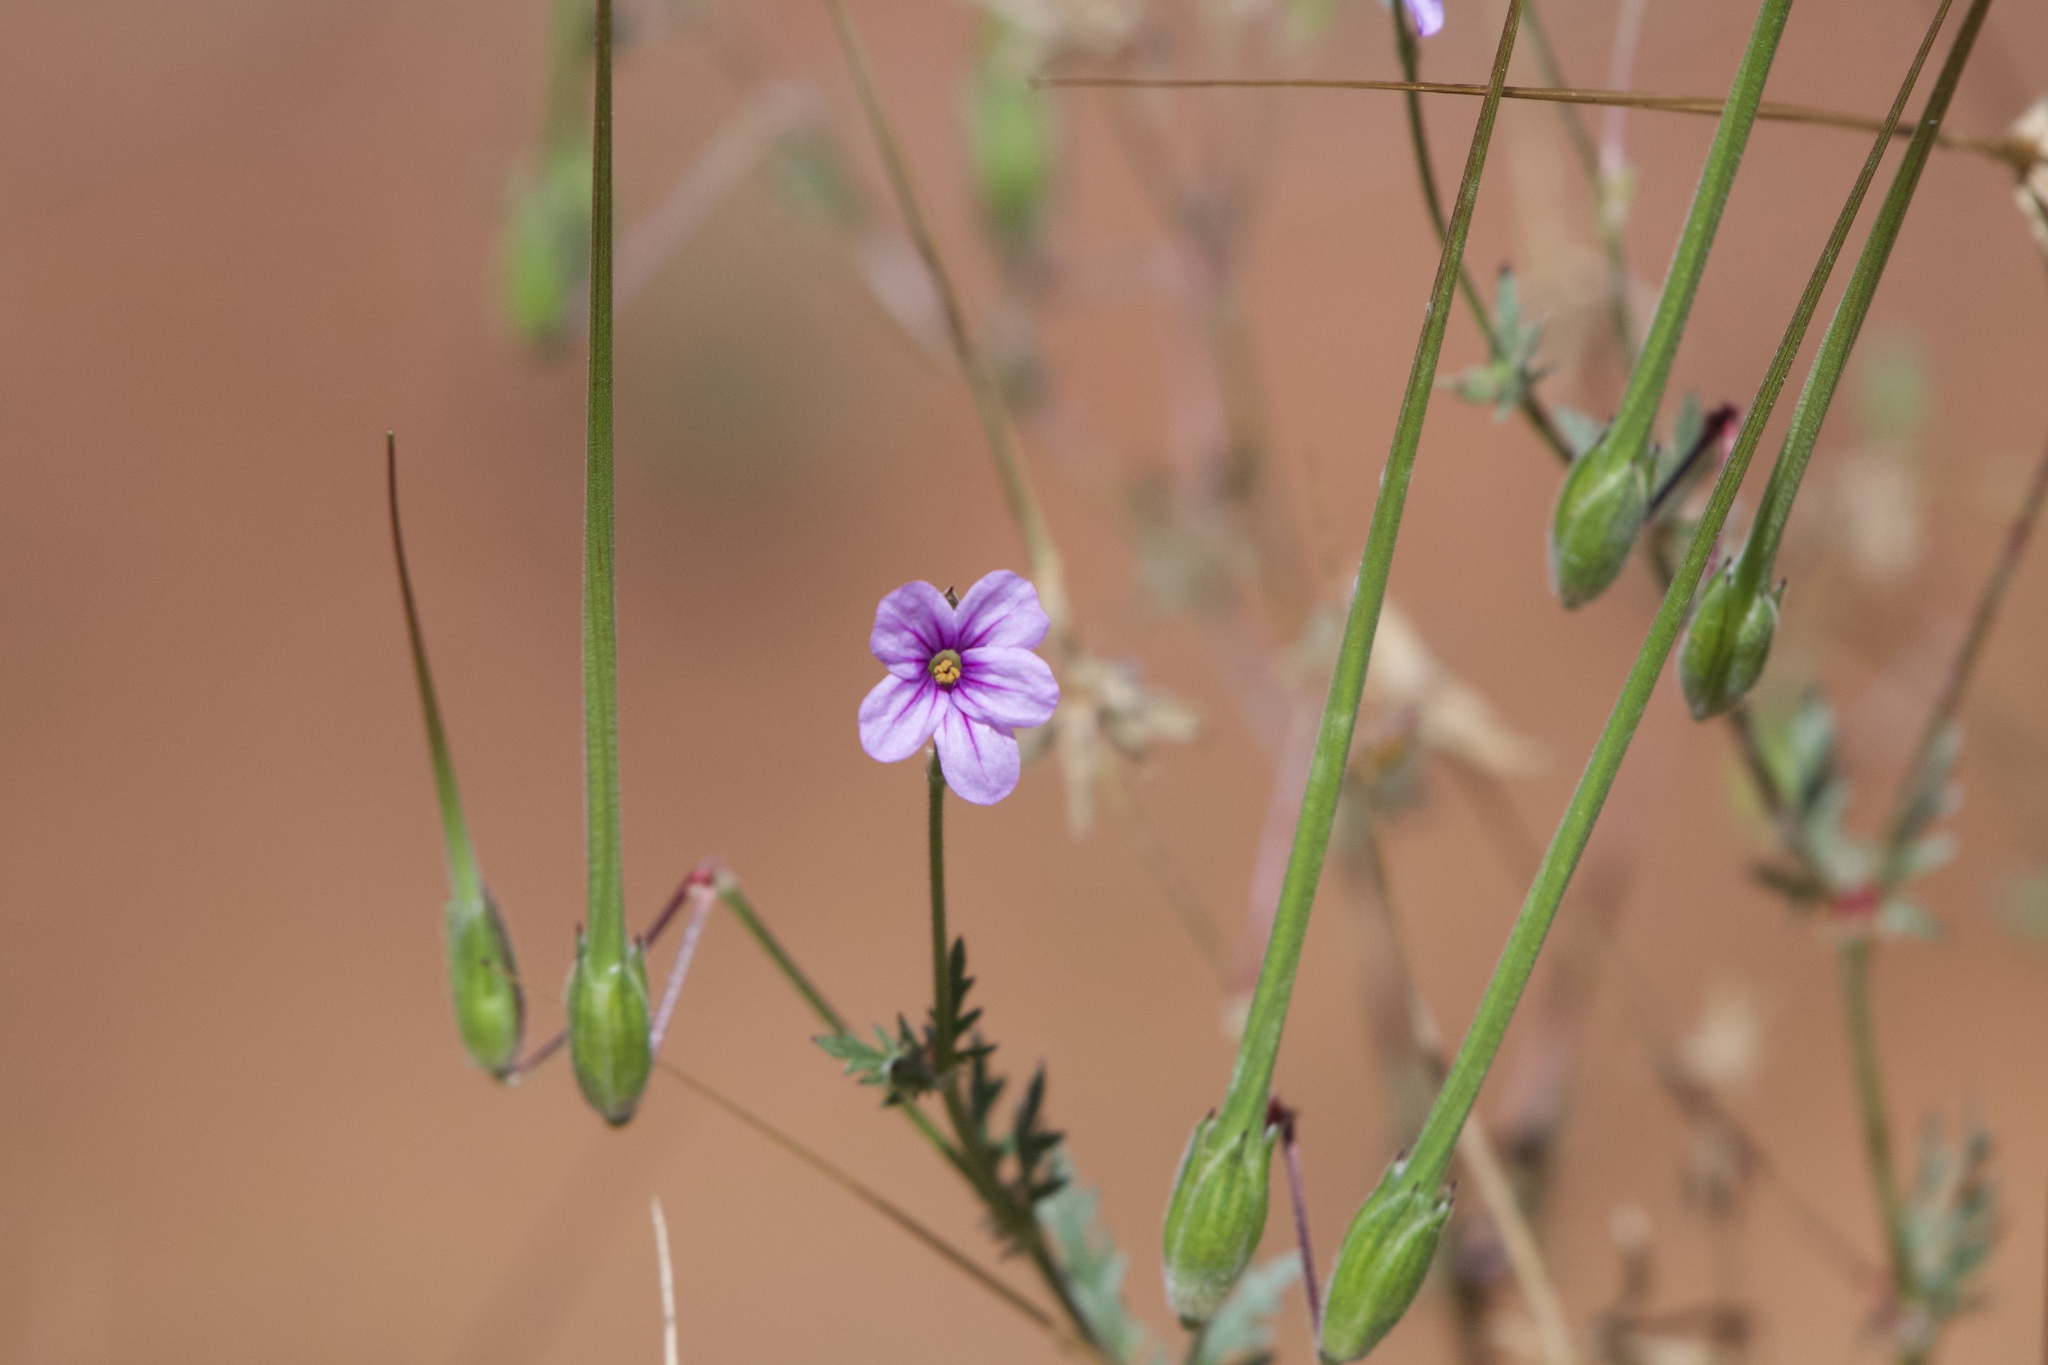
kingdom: Plantae
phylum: Tracheophyta
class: Magnoliopsida
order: Geraniales
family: Geraniaceae
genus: Erodium
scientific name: Erodium botrys
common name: Mediterranean stork's-bill
